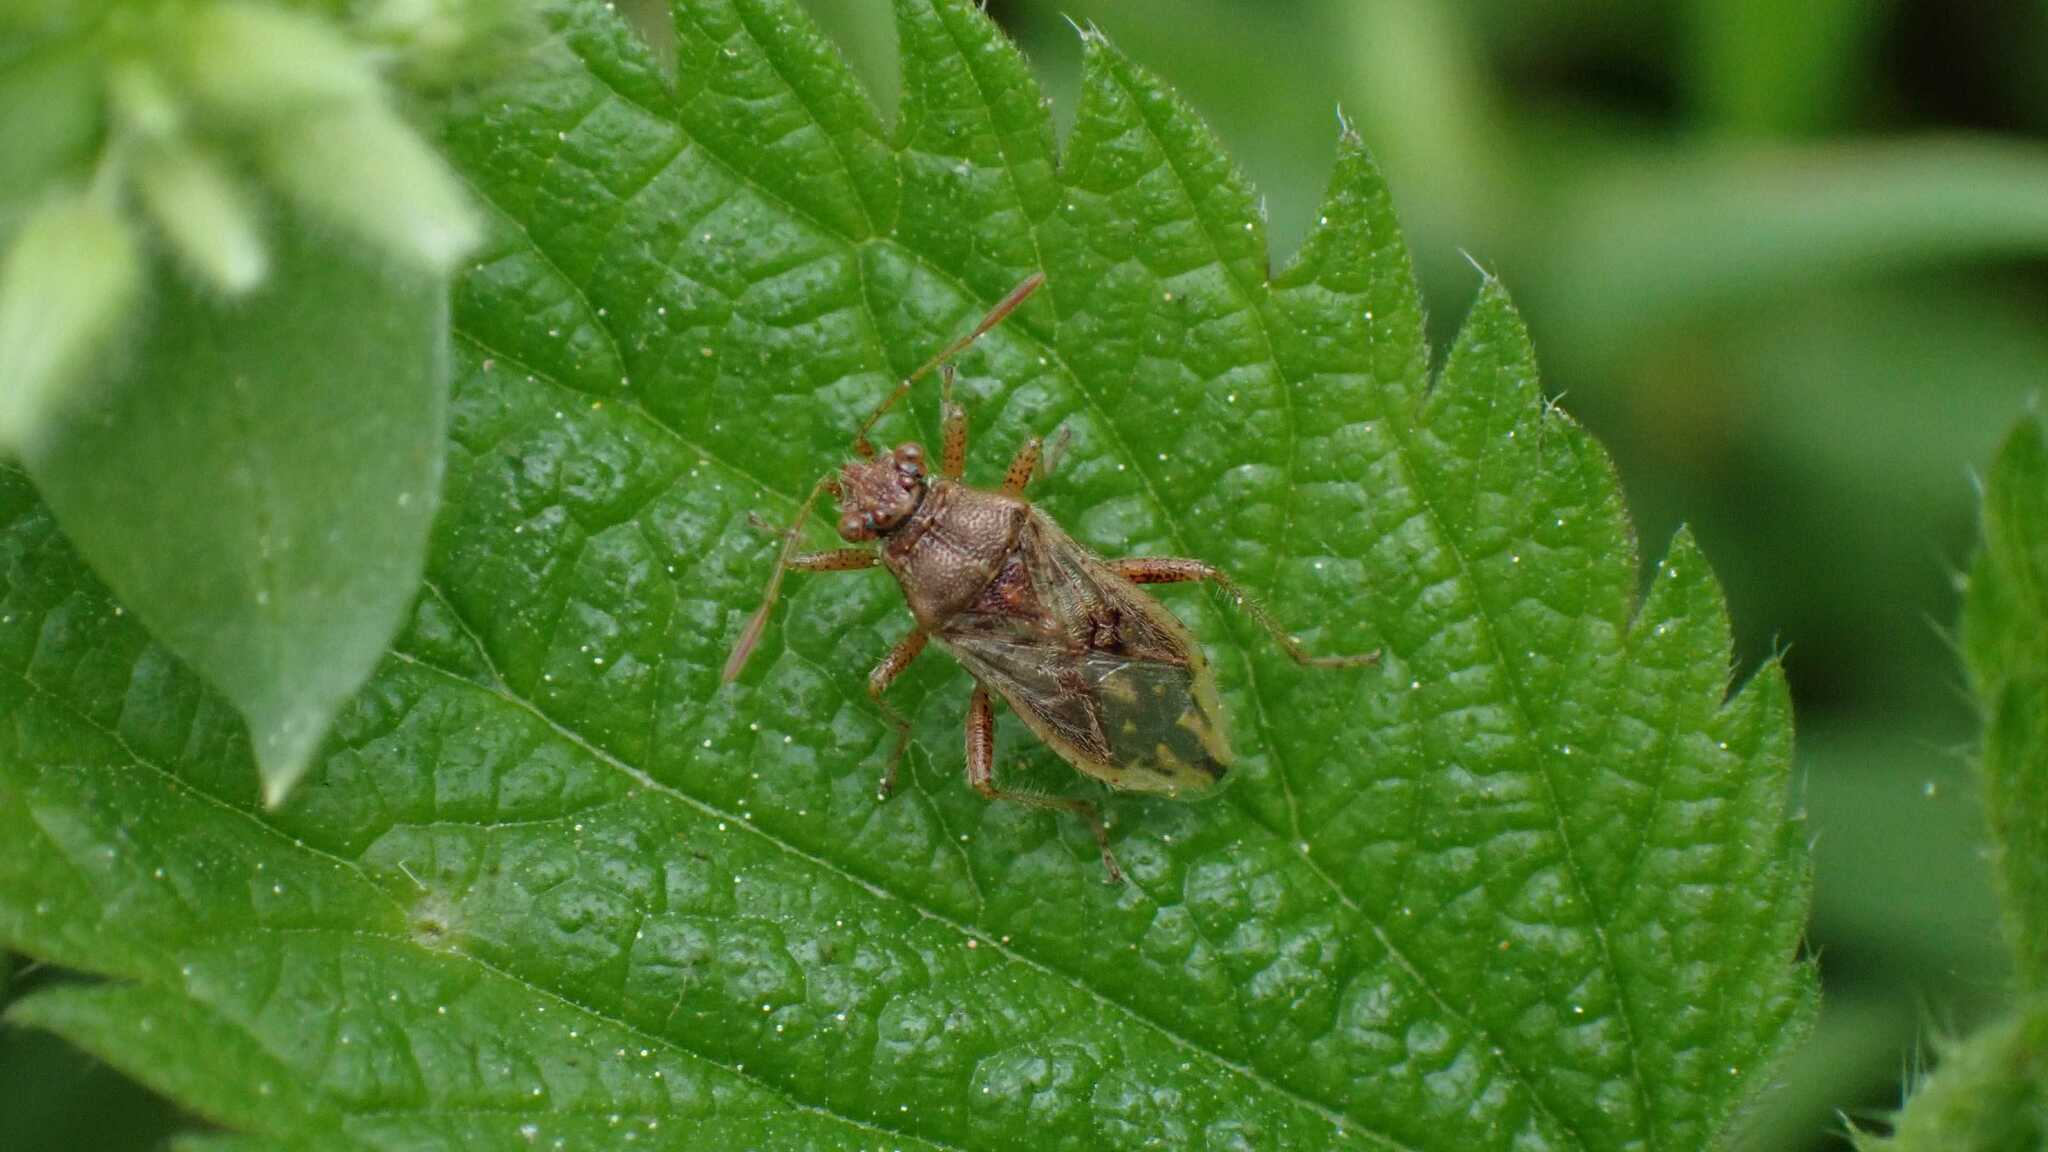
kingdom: Animalia
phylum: Arthropoda
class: Insecta
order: Hemiptera
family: Rhopalidae
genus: Rhopalus
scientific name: Rhopalus parumpunctatus
